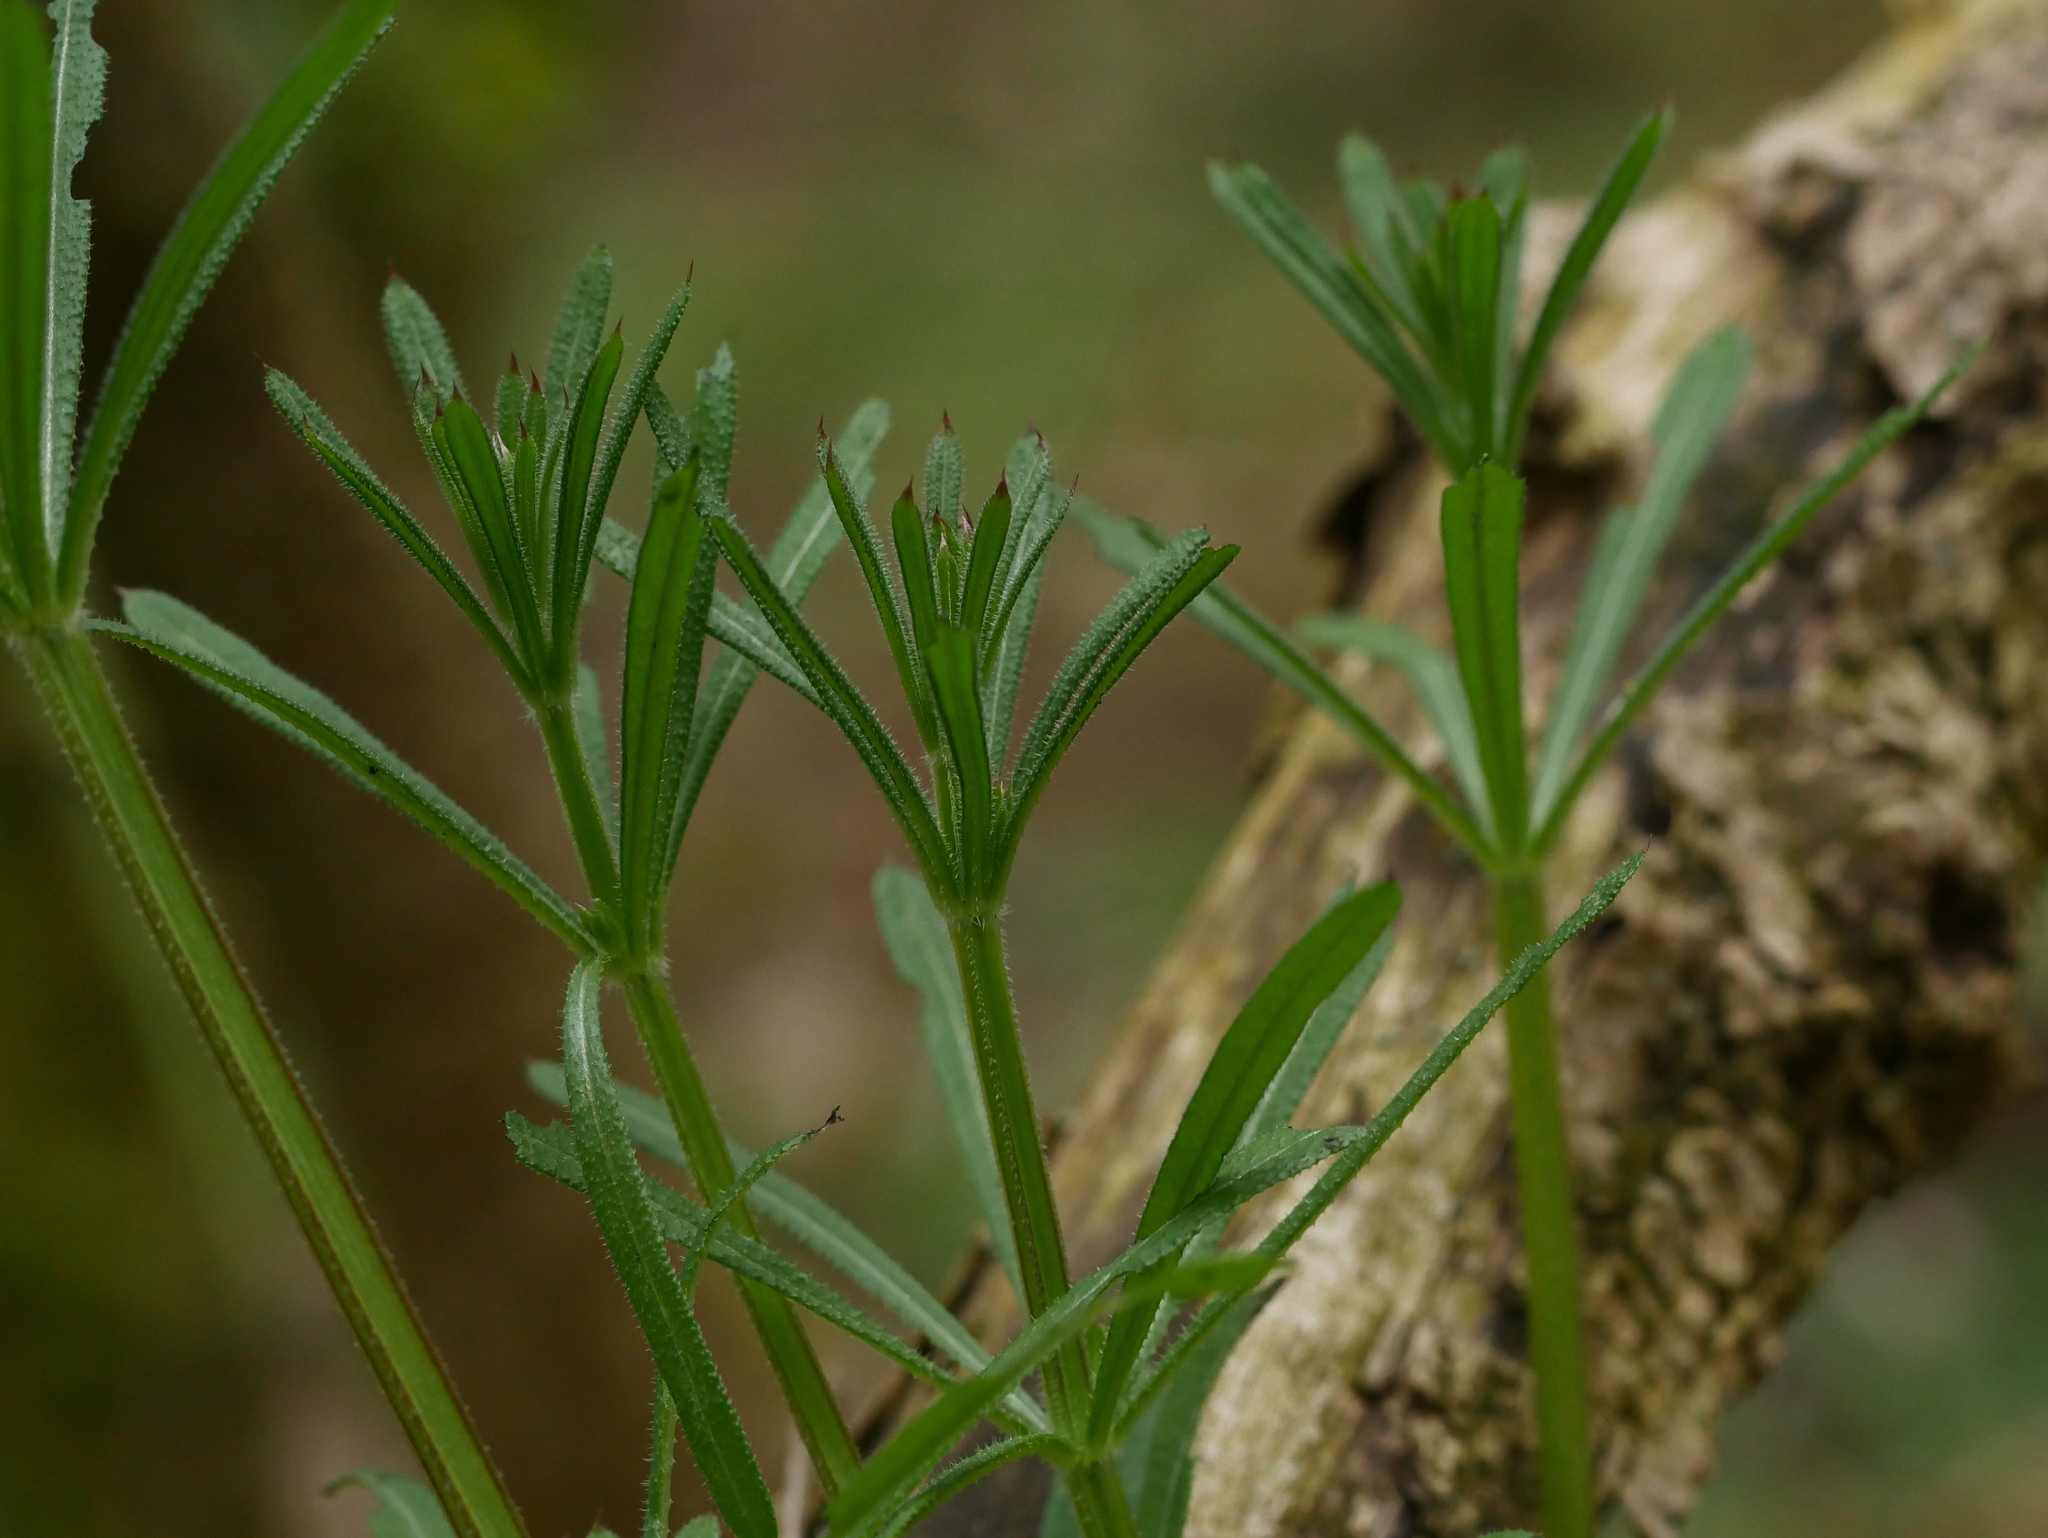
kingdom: Plantae
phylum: Tracheophyta
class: Magnoliopsida
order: Gentianales
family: Rubiaceae
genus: Galium
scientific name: Galium aparine
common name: Cleavers
